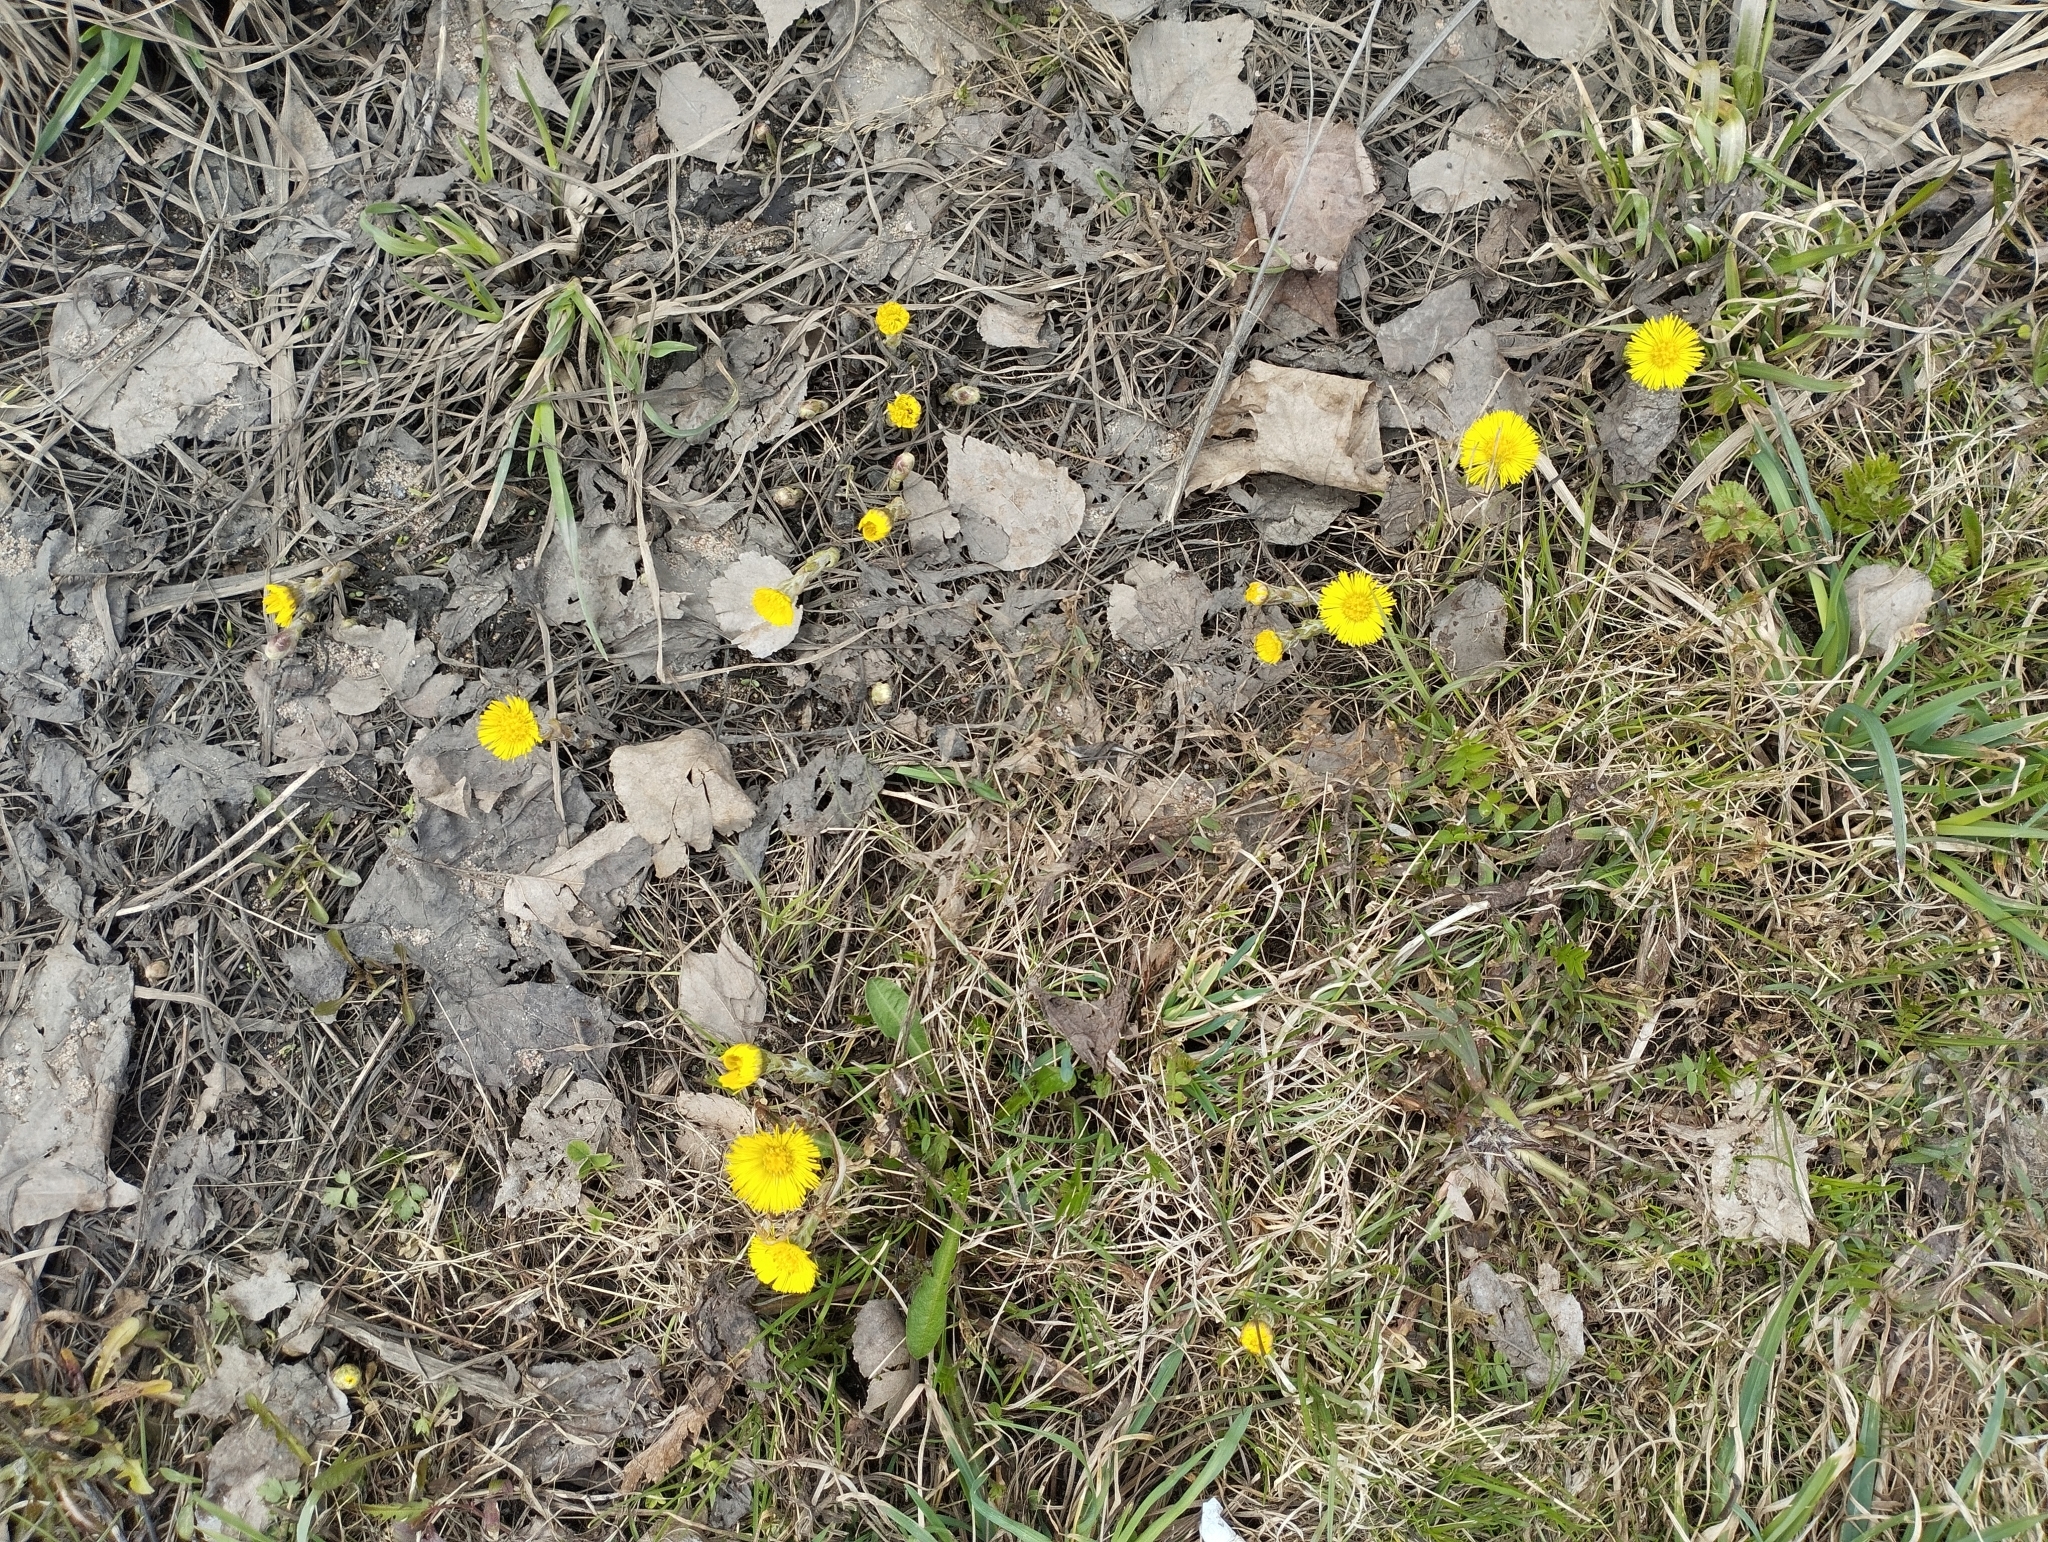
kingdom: Plantae
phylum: Tracheophyta
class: Magnoliopsida
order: Asterales
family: Asteraceae
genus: Tussilago
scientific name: Tussilago farfara
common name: Coltsfoot
